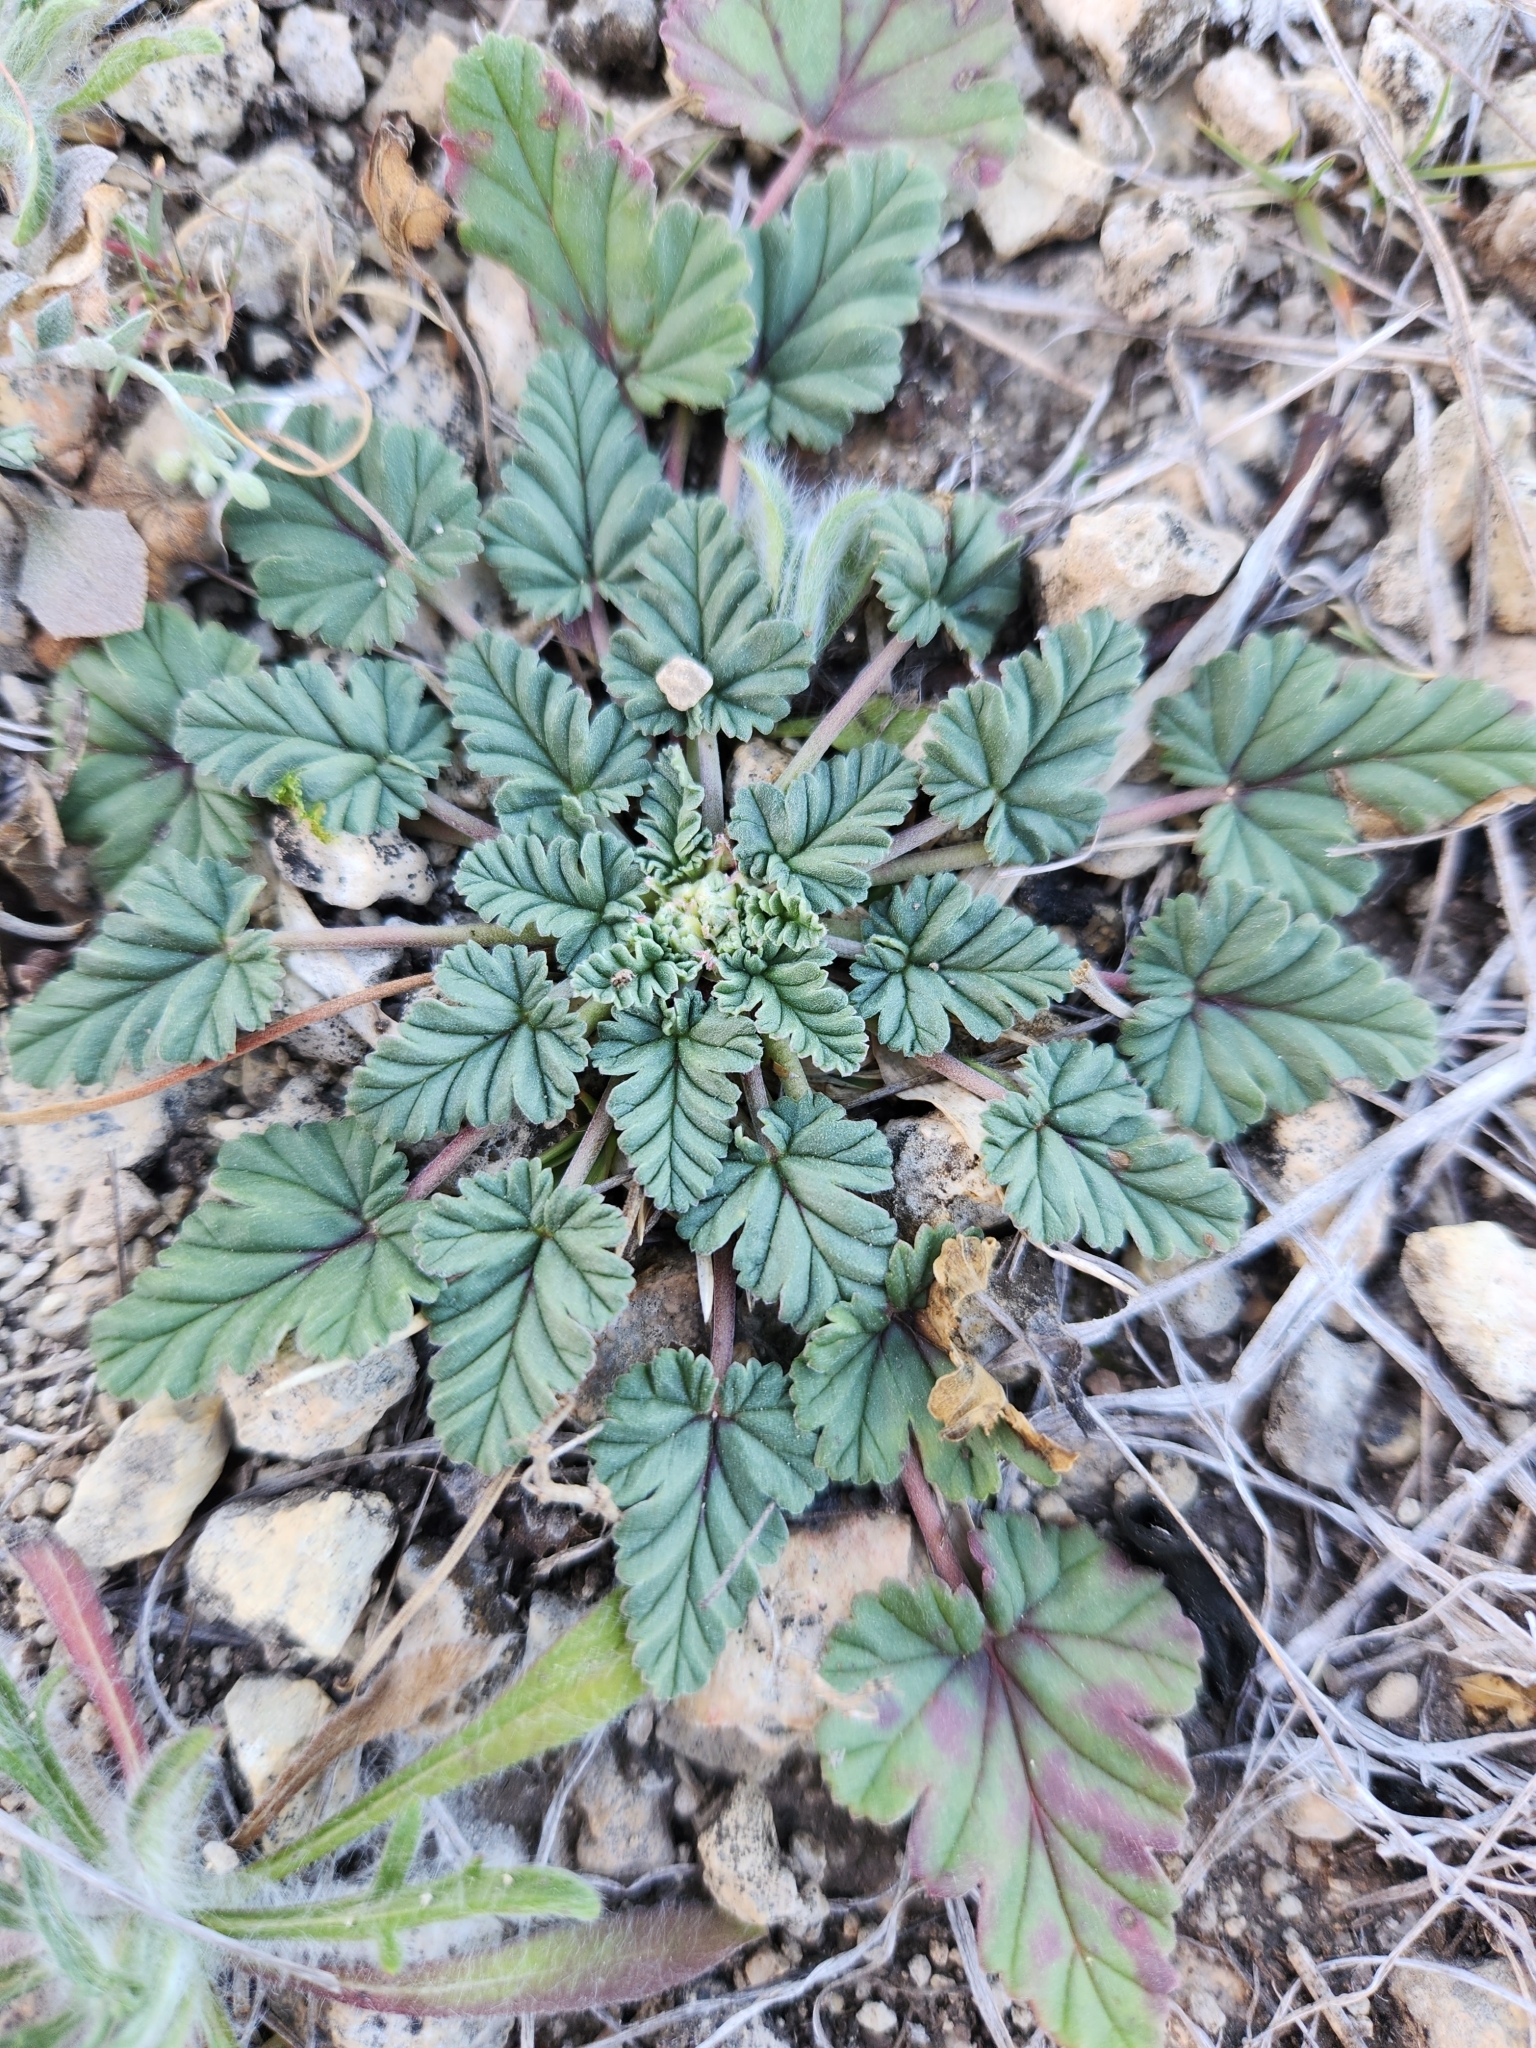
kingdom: Plantae
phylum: Tracheophyta
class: Magnoliopsida
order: Geraniales
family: Geraniaceae
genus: Erodium
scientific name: Erodium texanum
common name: Texas stork's-bill
